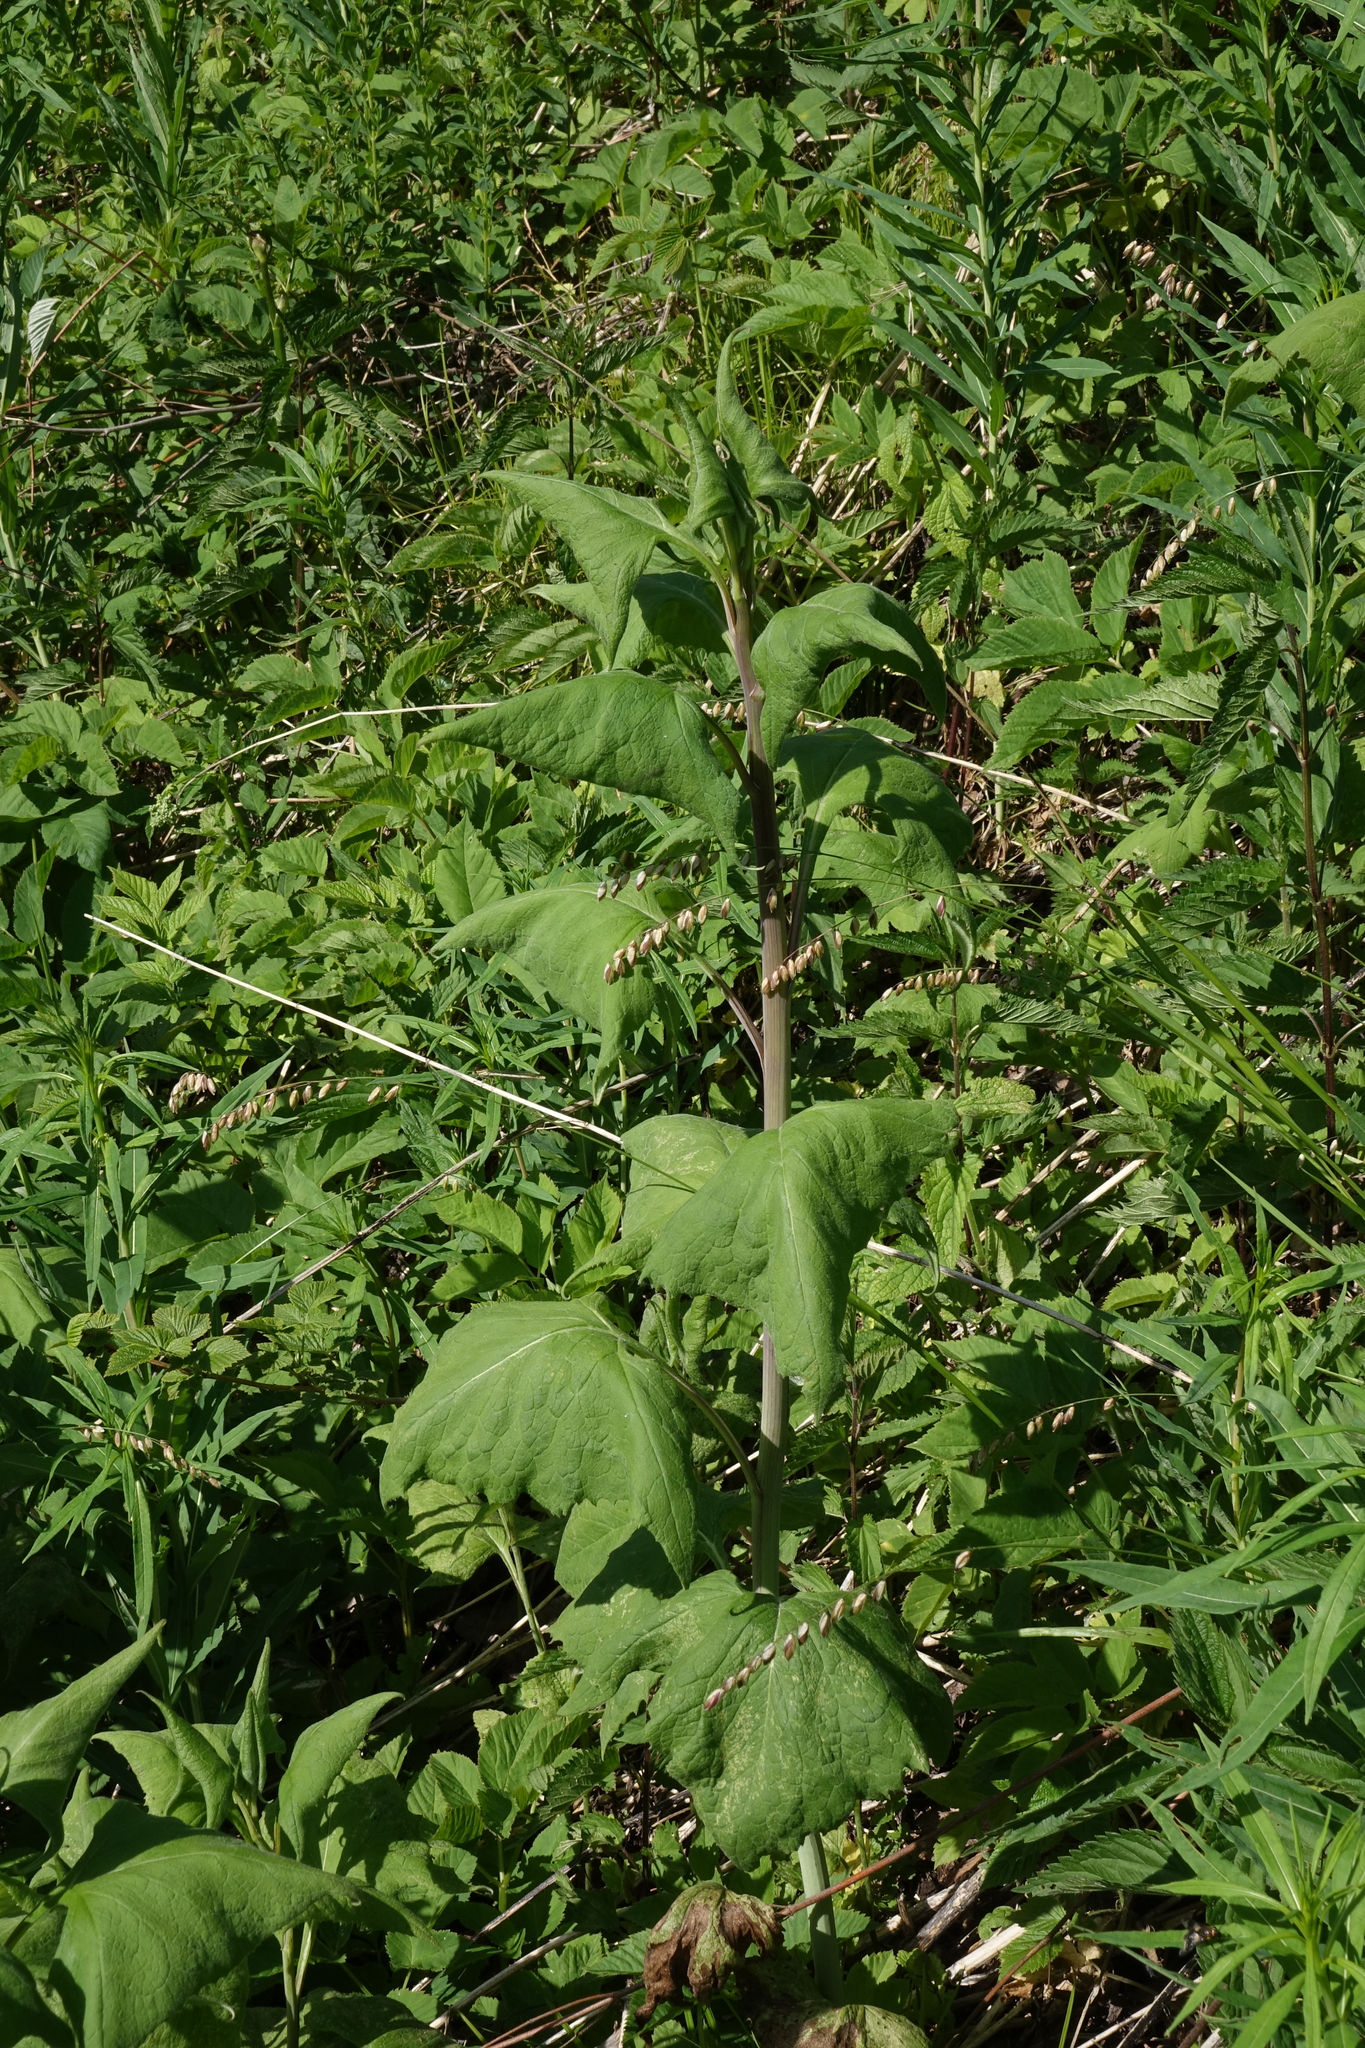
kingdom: Plantae
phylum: Tracheophyta
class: Magnoliopsida
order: Asterales
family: Asteraceae
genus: Parasenecio
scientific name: Parasenecio hastatus
